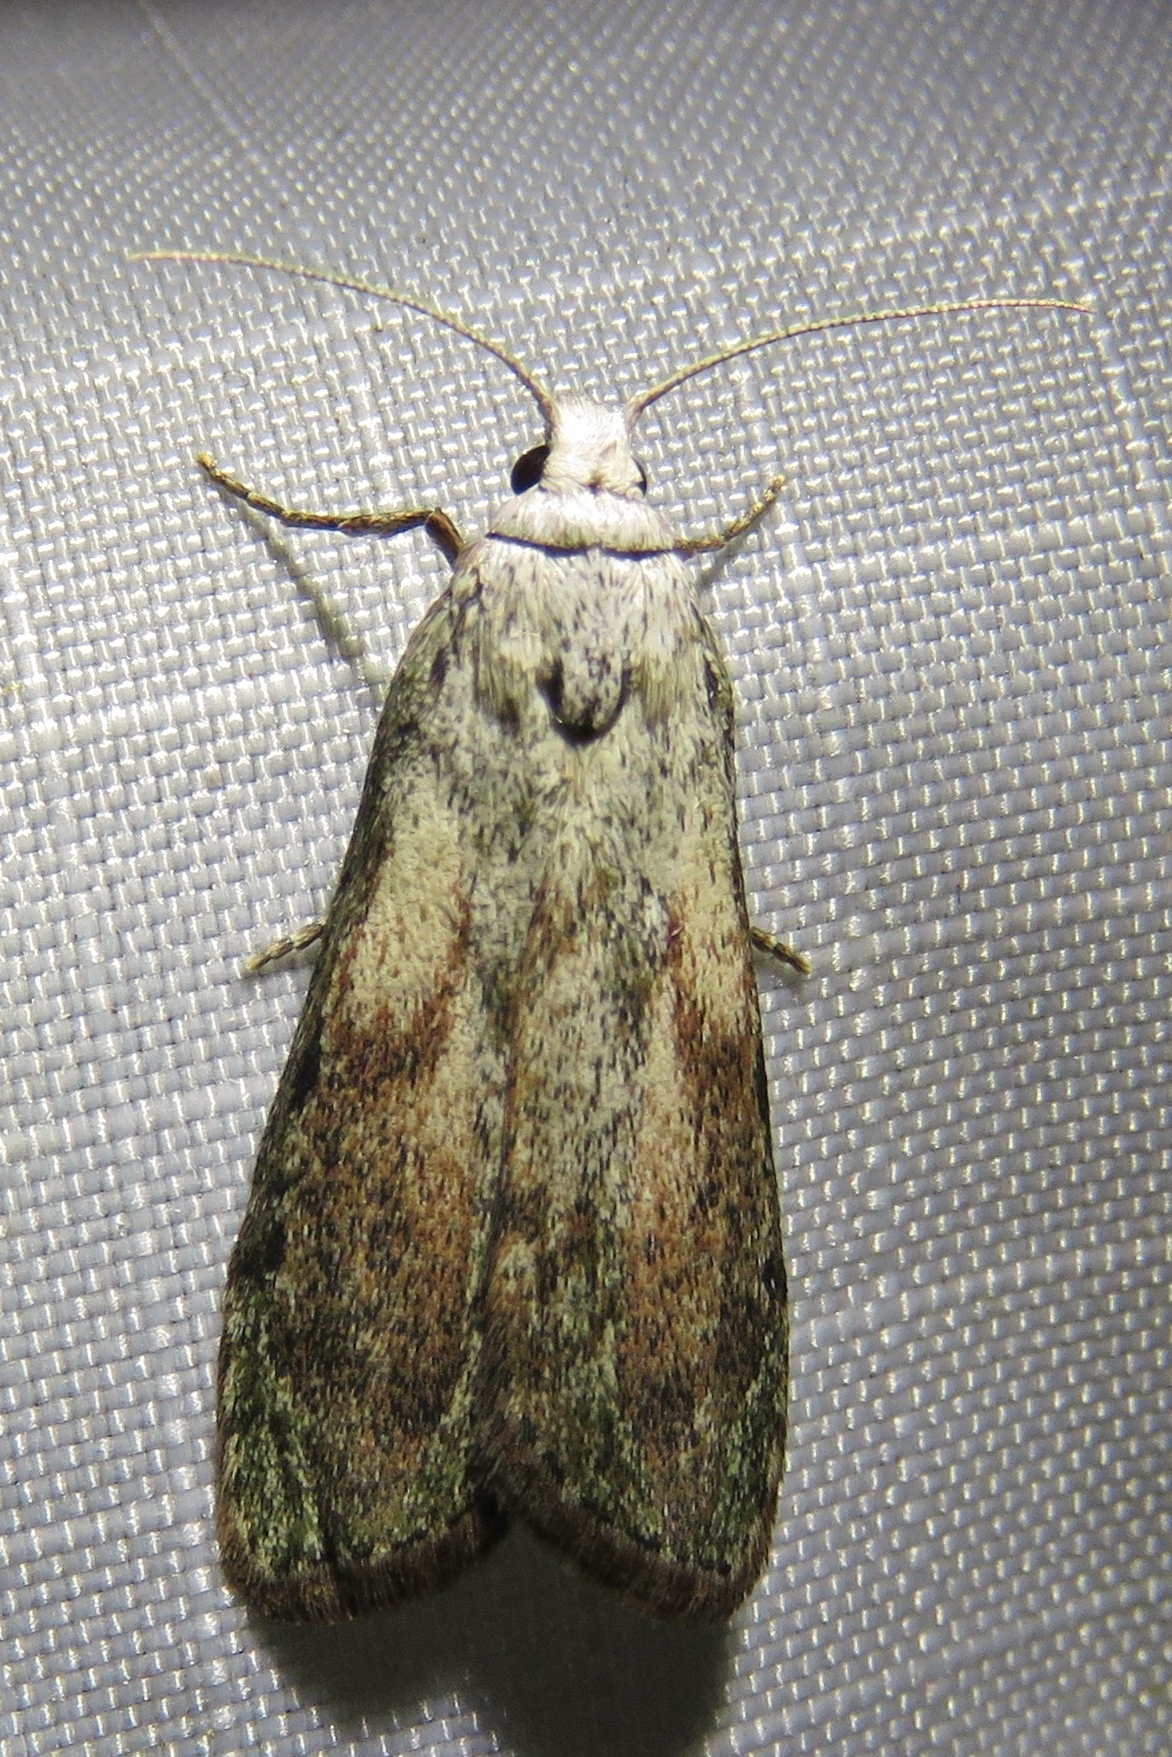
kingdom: Animalia
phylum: Arthropoda
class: Insecta
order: Lepidoptera
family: Pyralidae
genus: Aphomia
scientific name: Aphomia sociella
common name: Bee moth
